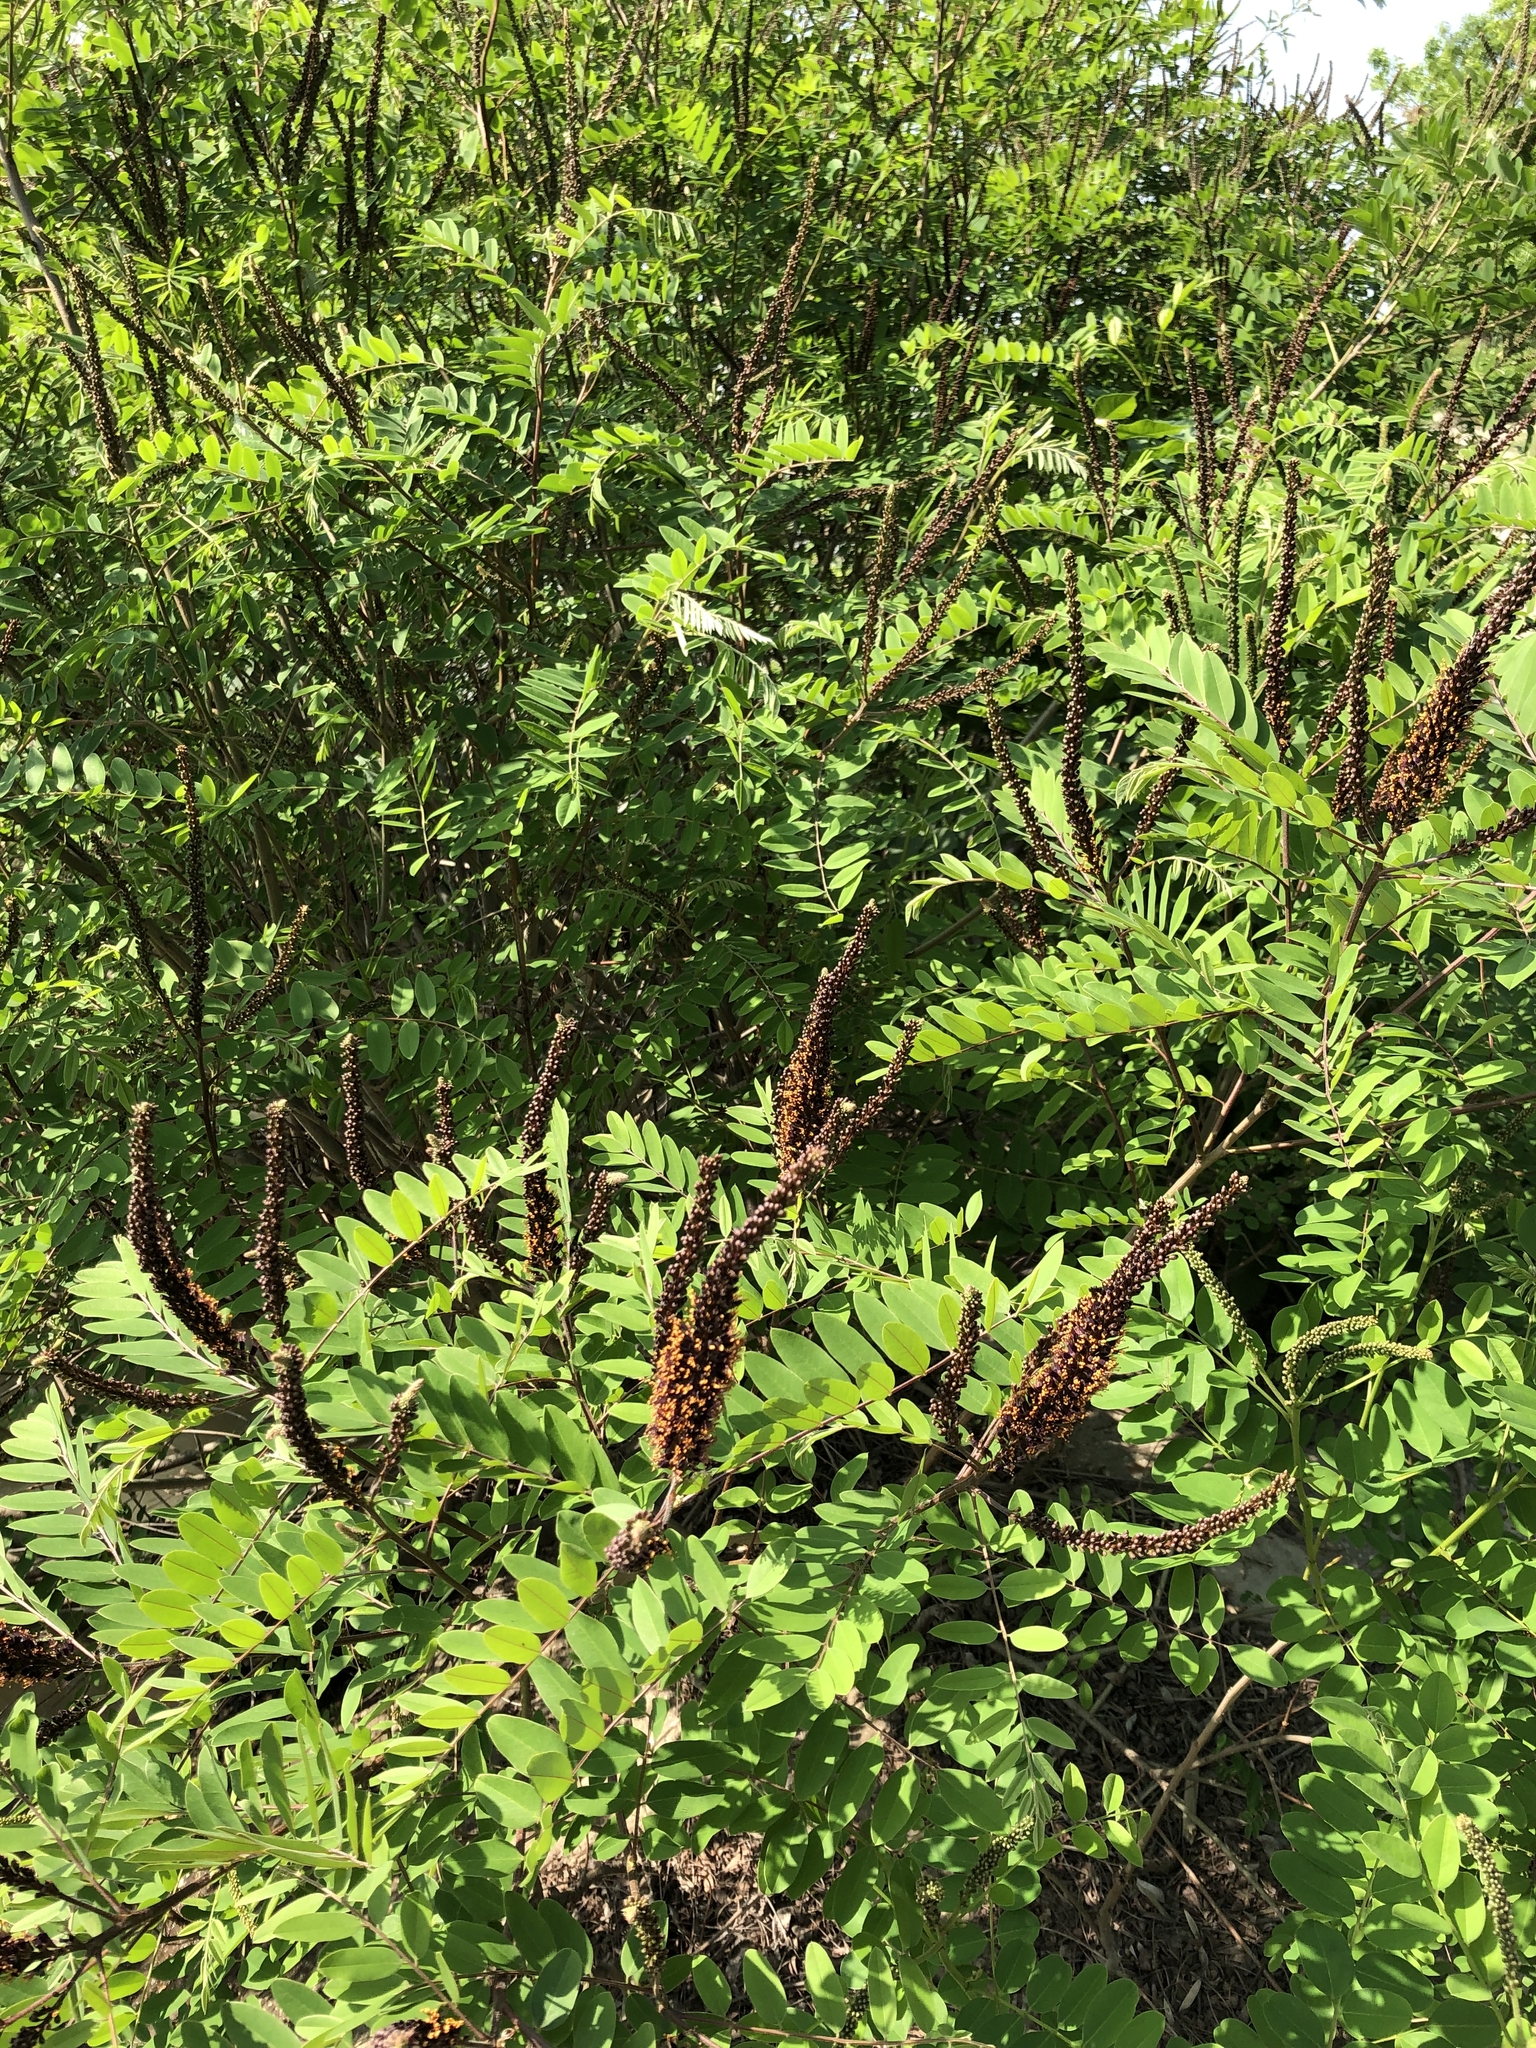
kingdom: Plantae
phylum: Tracheophyta
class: Magnoliopsida
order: Fabales
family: Fabaceae
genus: Amorpha
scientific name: Amorpha fruticosa
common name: False indigo
